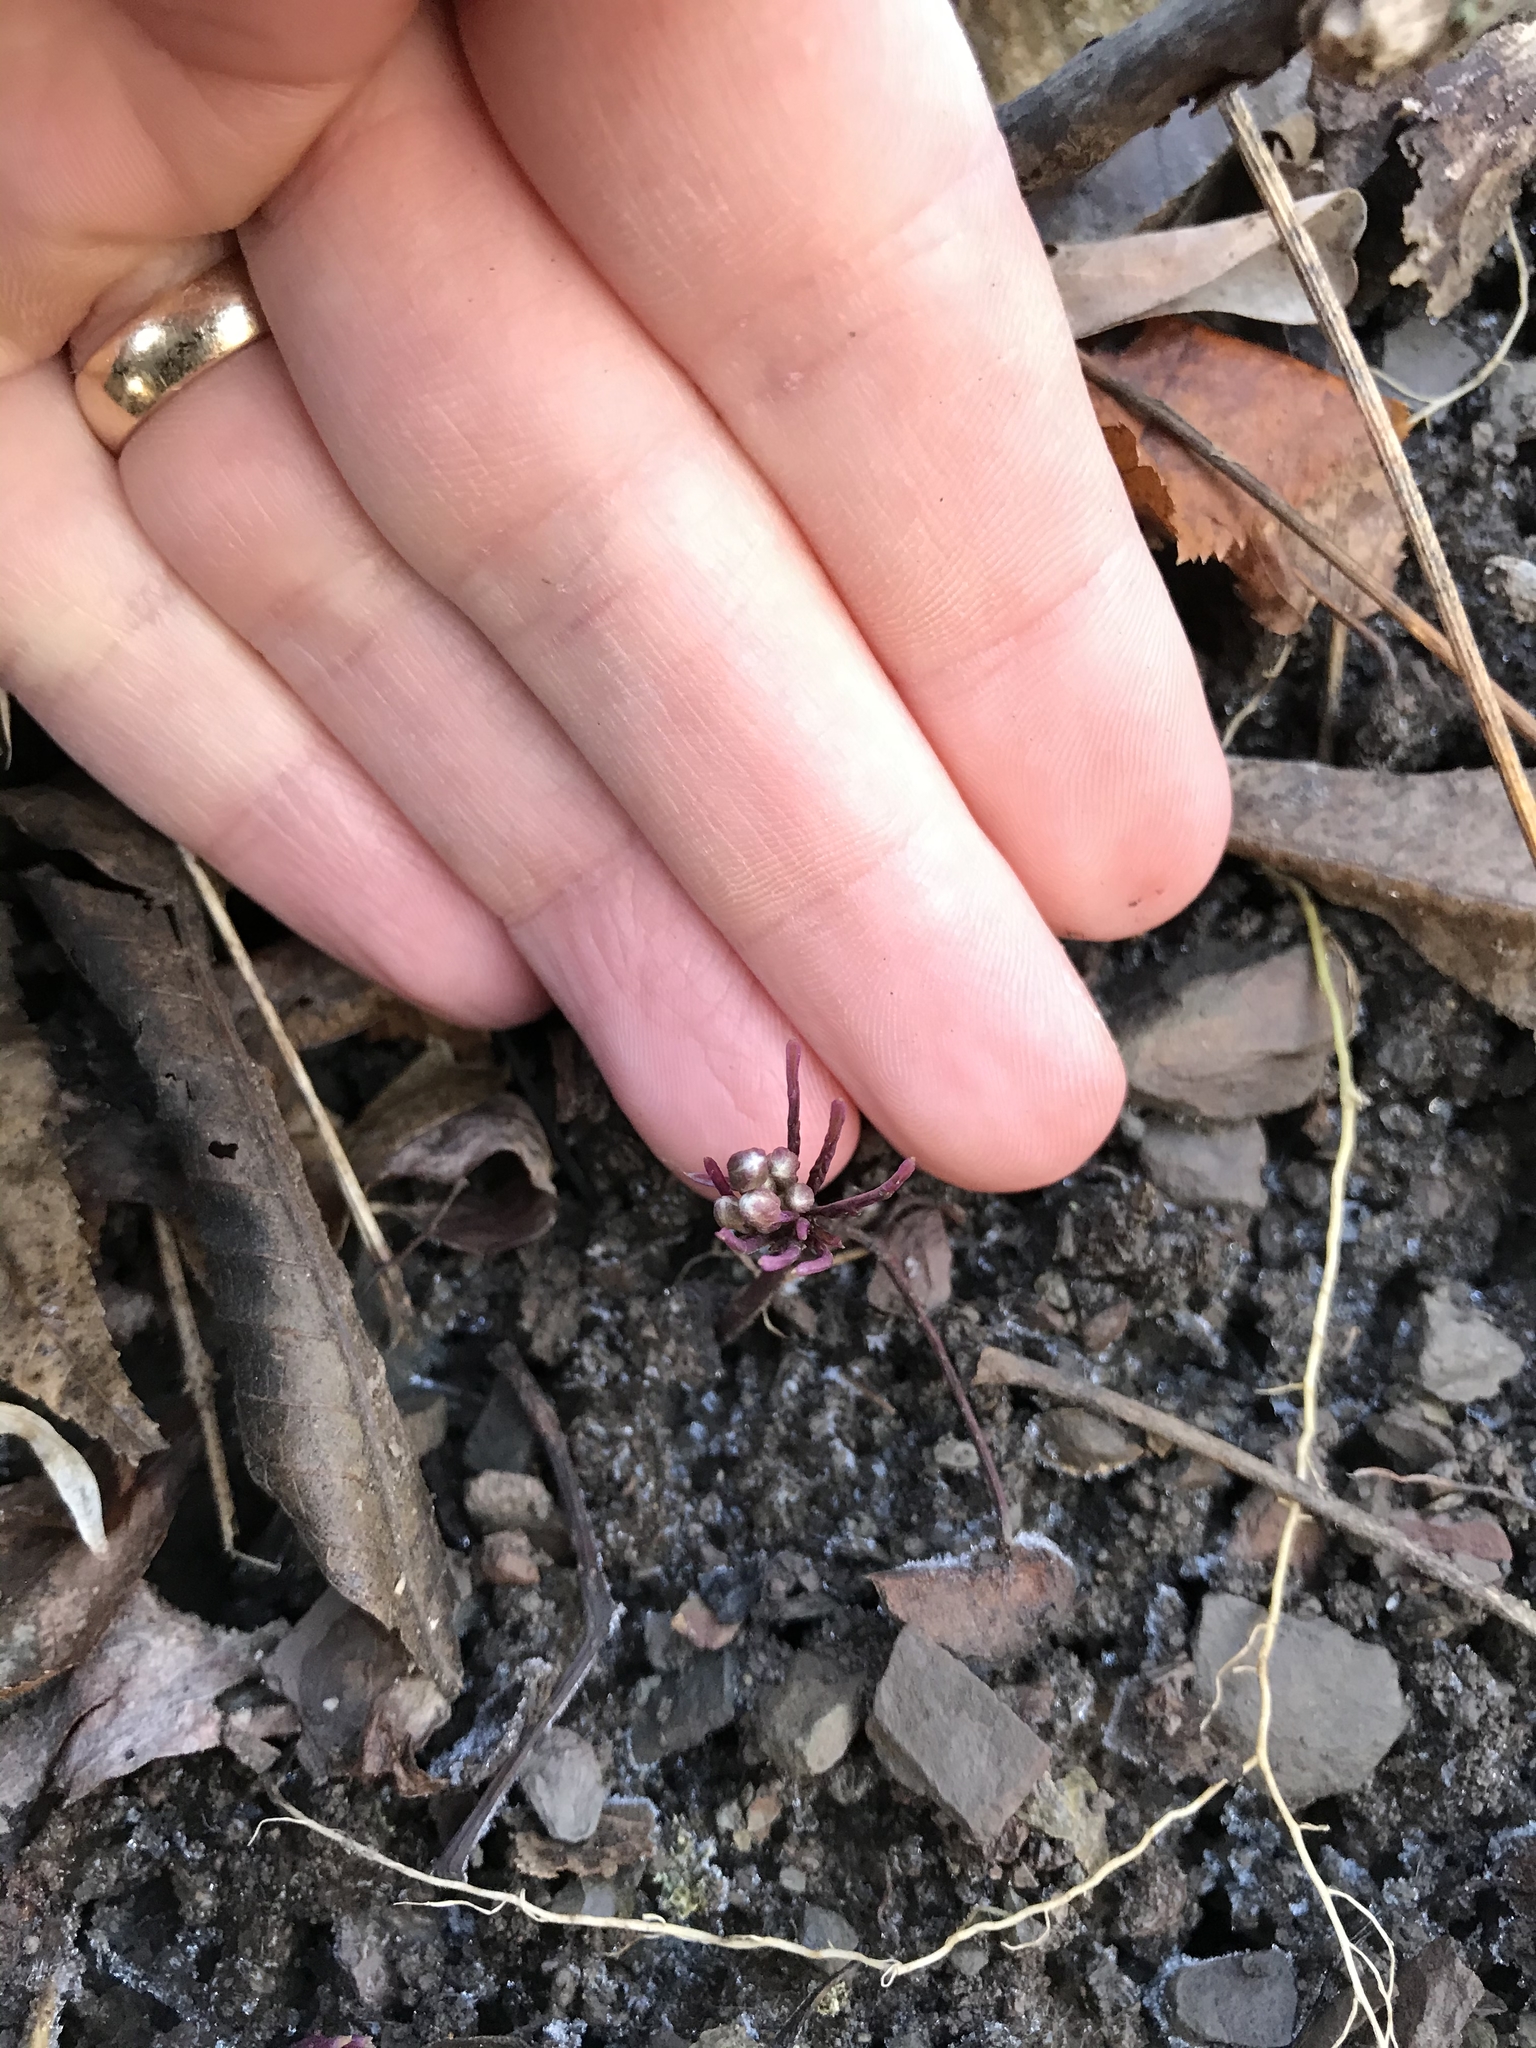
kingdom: Plantae
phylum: Tracheophyta
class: Magnoliopsida
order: Brassicales
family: Brassicaceae
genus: Cardamine
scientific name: Cardamine concatenata
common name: Cut-leaf toothcup
